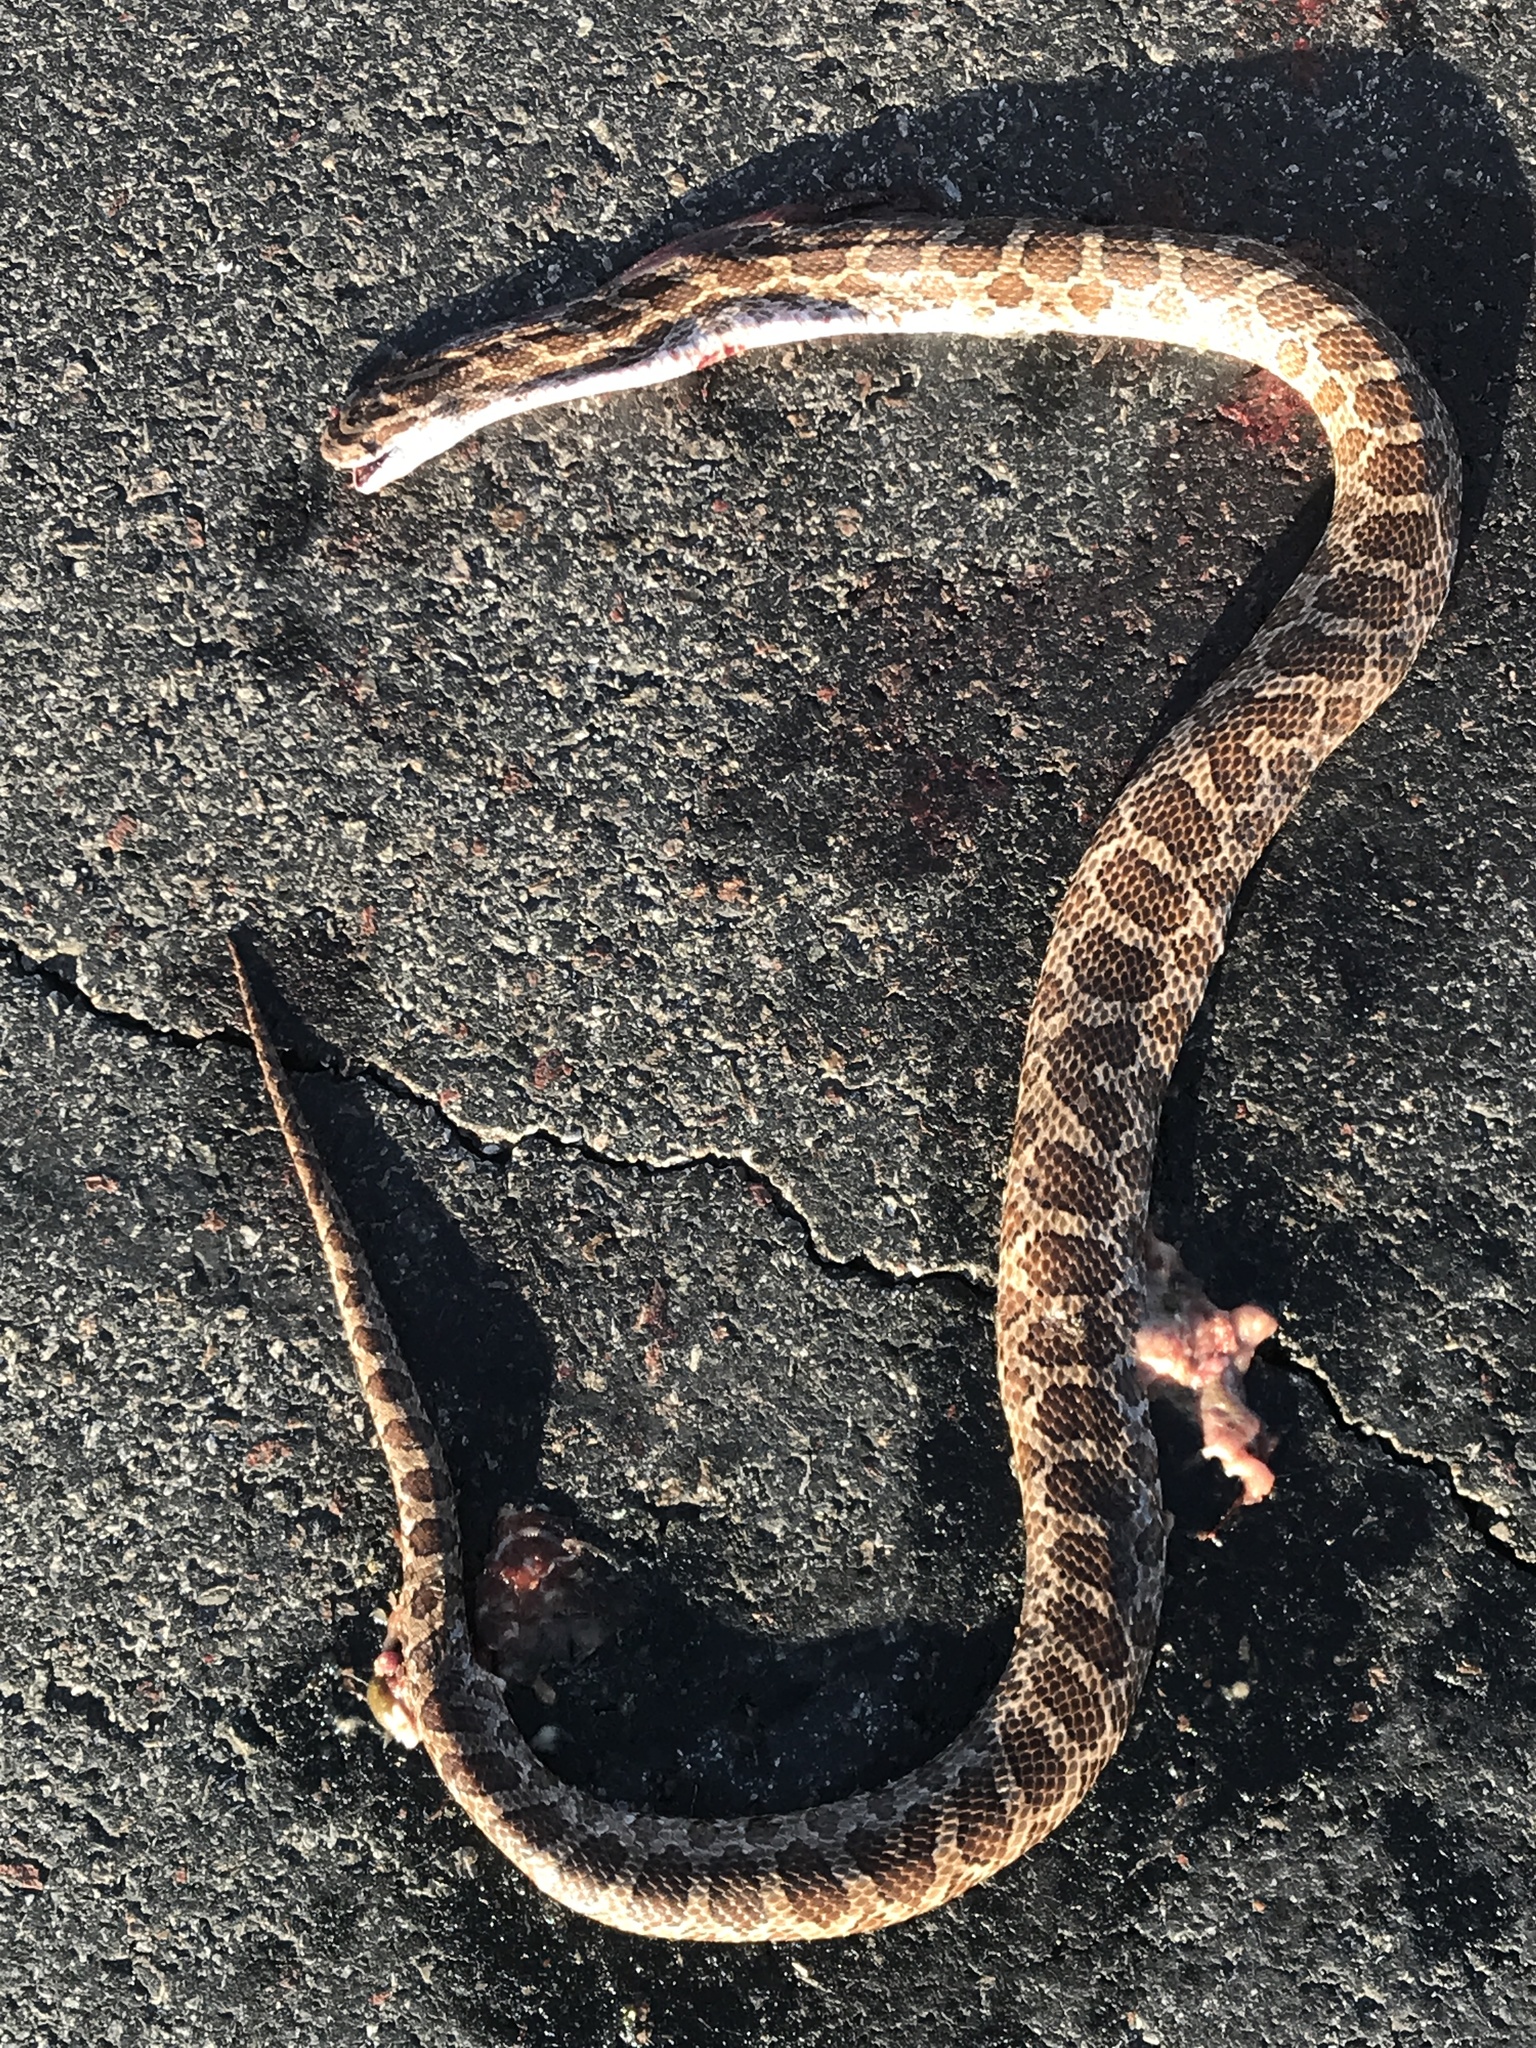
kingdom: Animalia
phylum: Chordata
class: Squamata
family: Colubridae
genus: Arizona
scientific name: Arizona elegans
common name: Glossy snake
